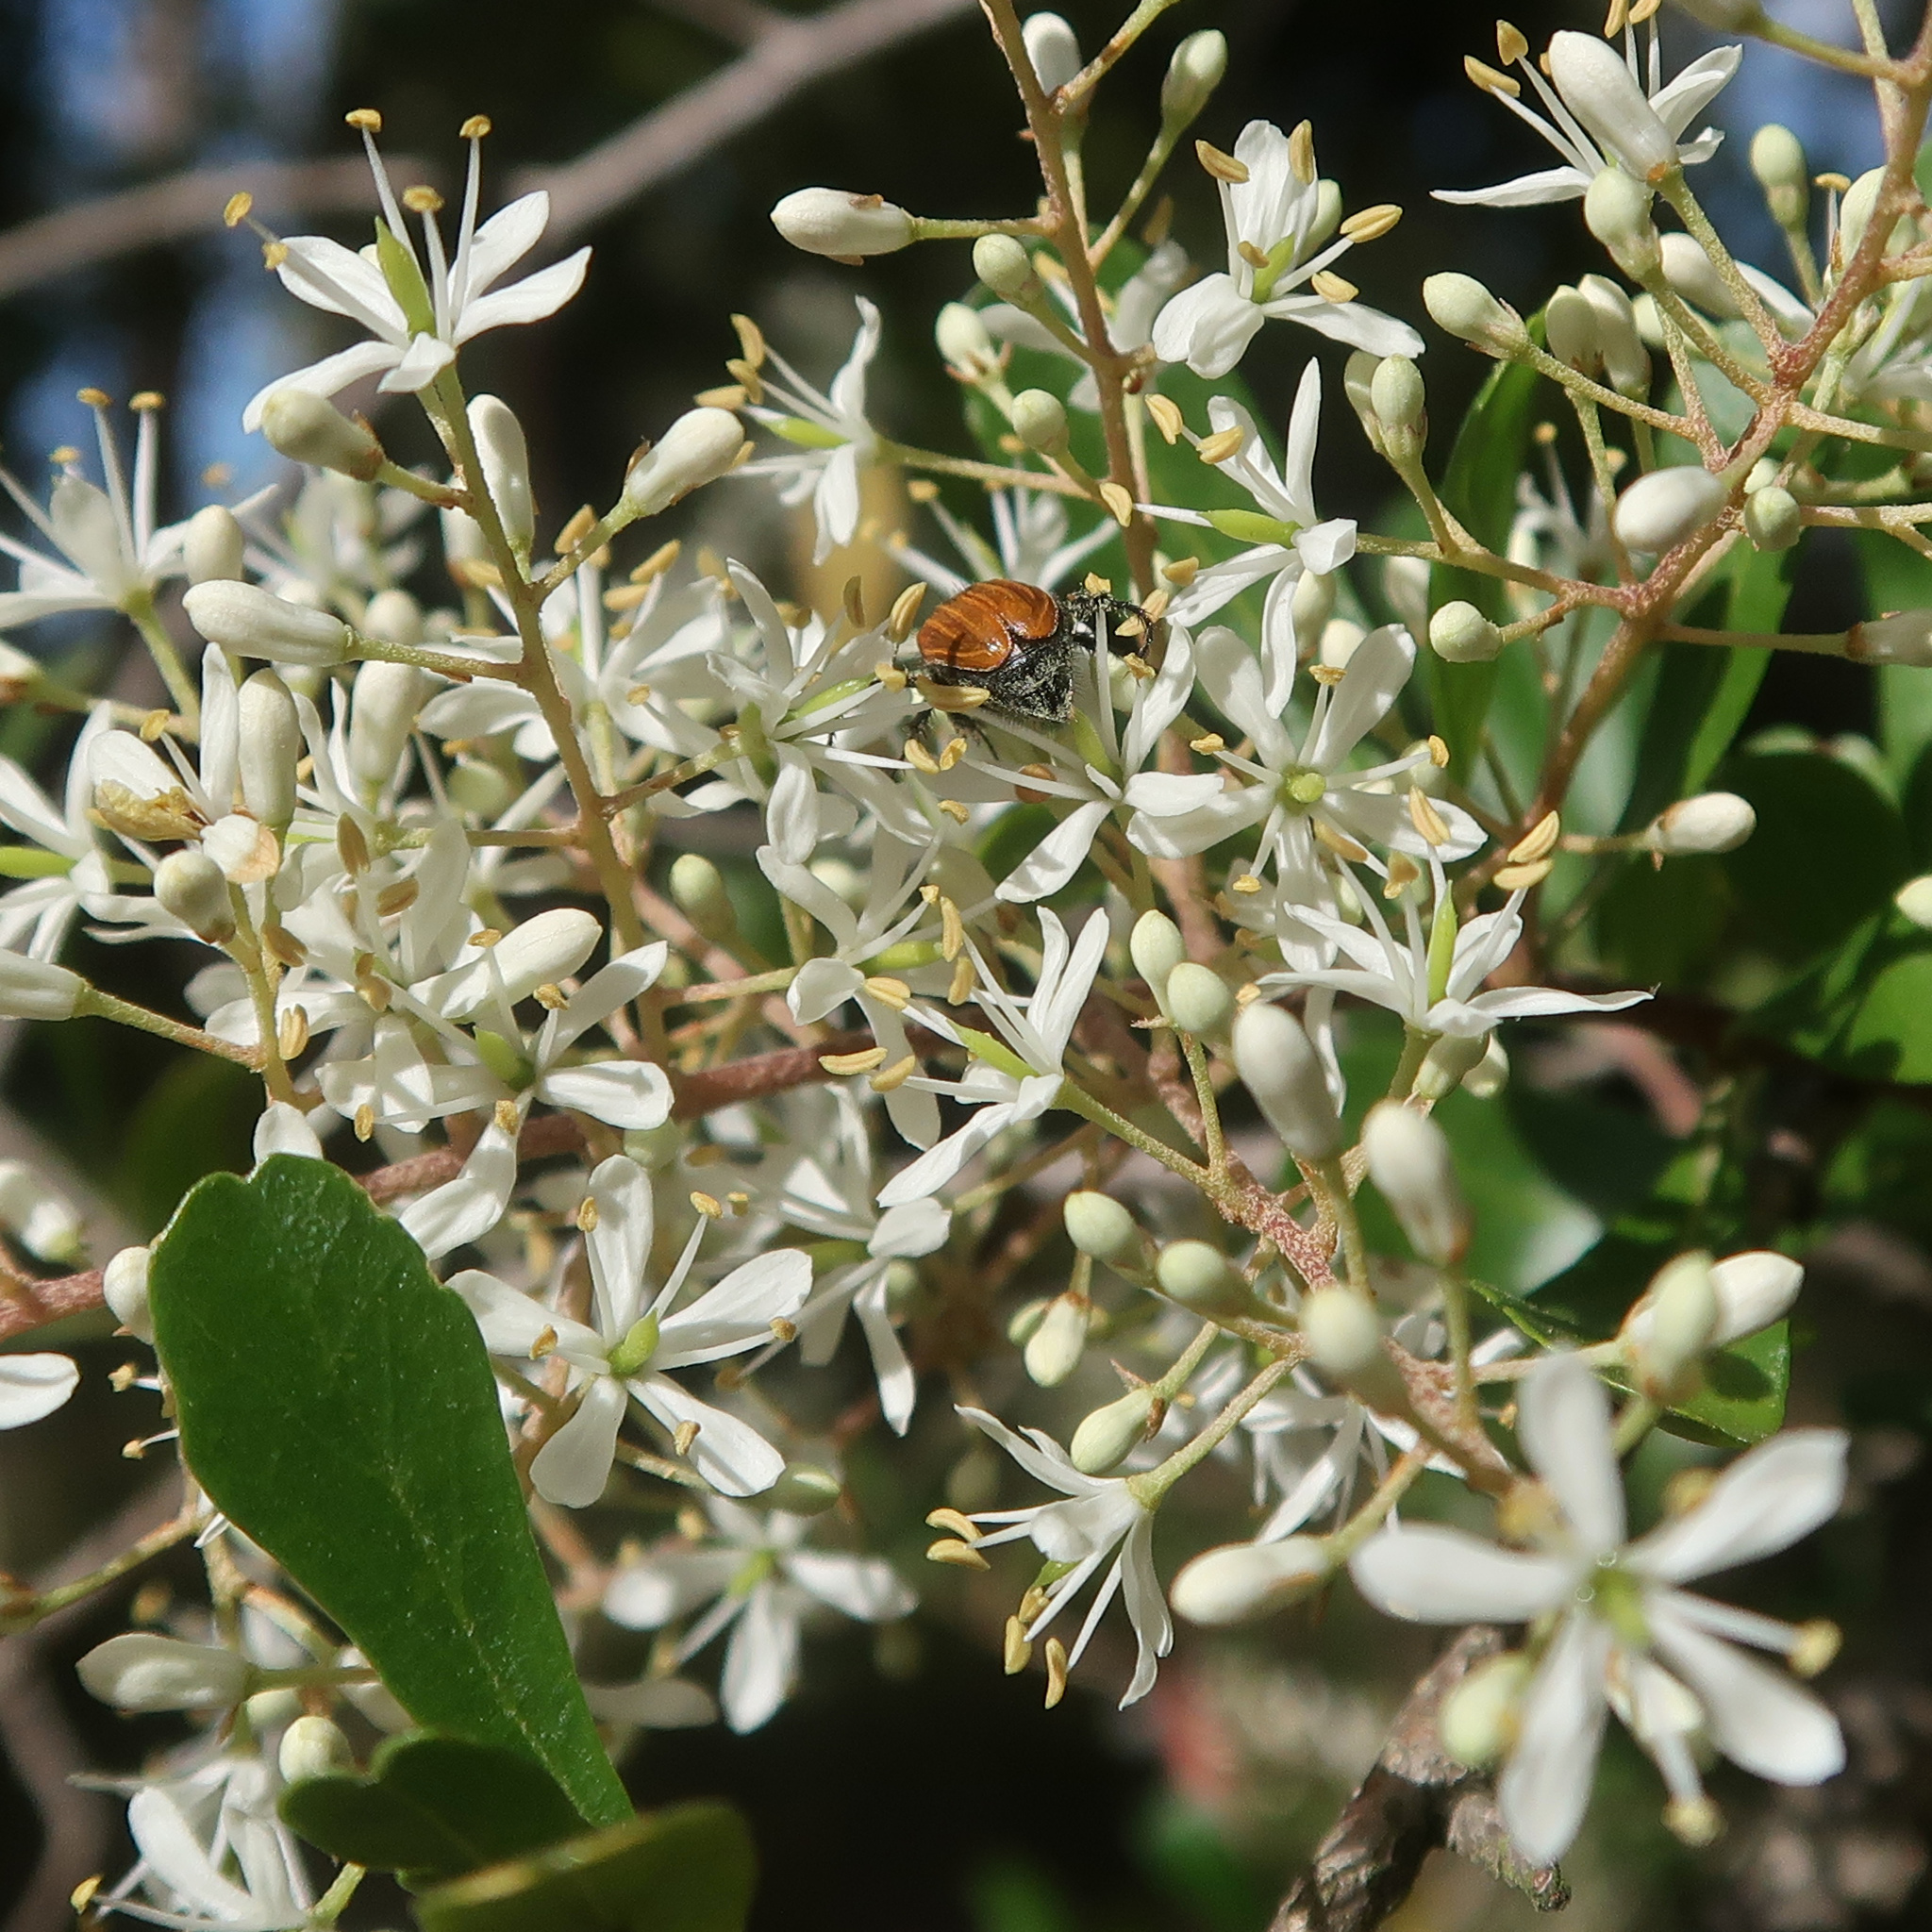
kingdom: Plantae
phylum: Tracheophyta
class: Magnoliopsida
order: Apiales
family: Pittosporaceae
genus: Bursaria
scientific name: Bursaria spinosa
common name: Australian blackthorn
